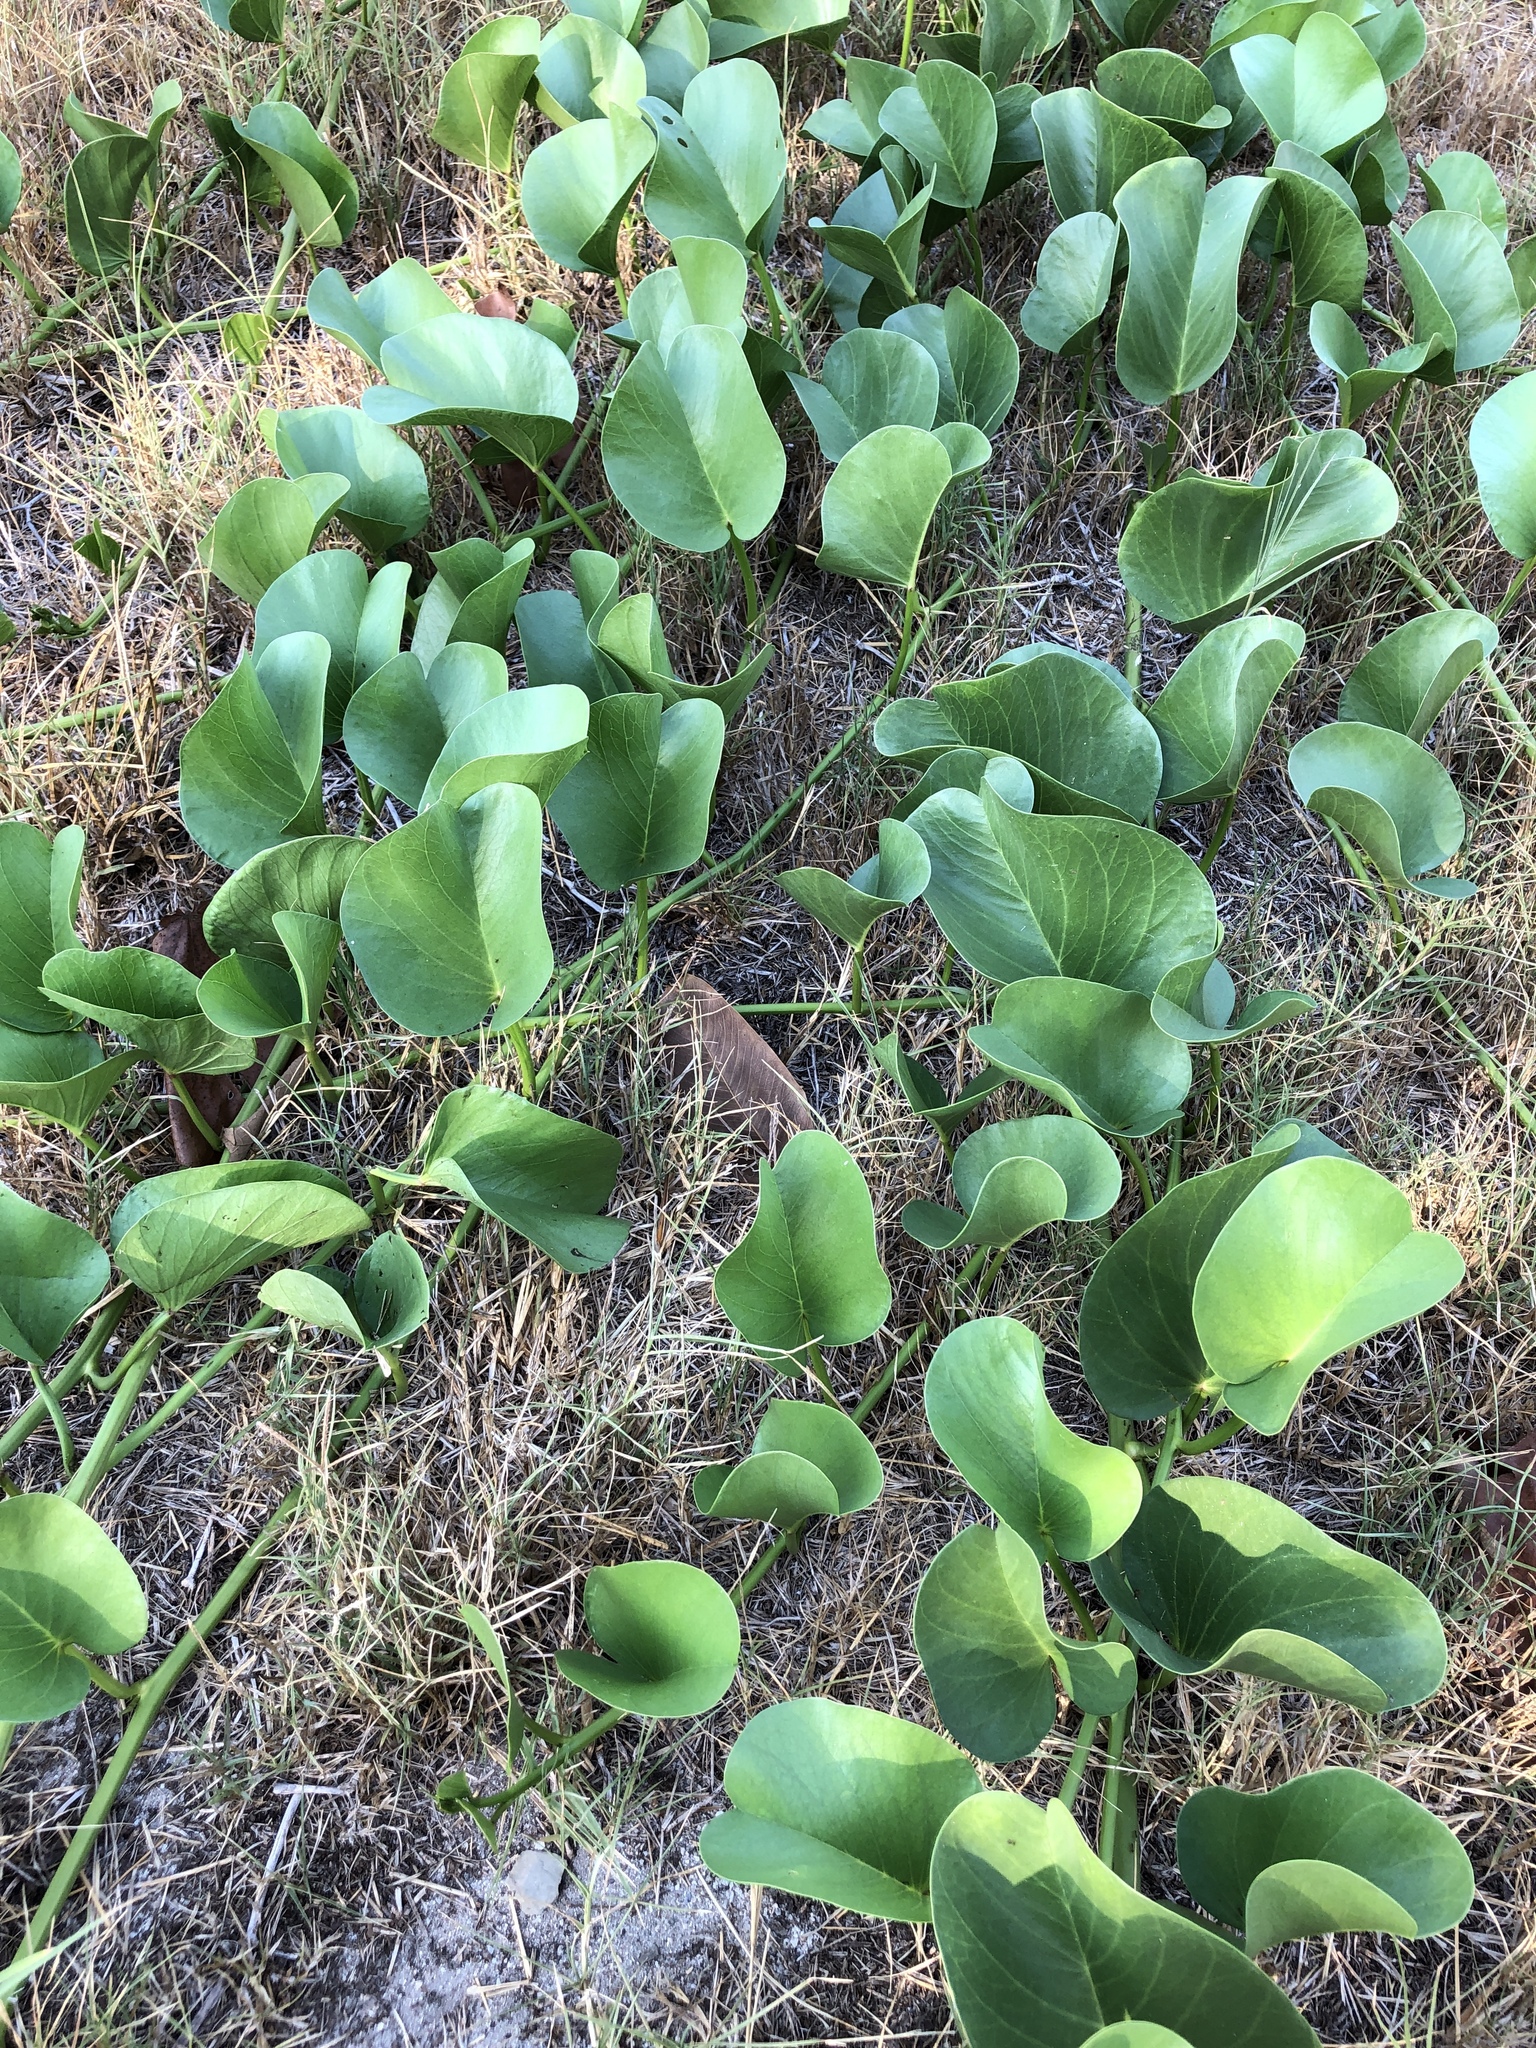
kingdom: Plantae
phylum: Tracheophyta
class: Magnoliopsida
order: Solanales
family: Convolvulaceae
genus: Ipomoea
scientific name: Ipomoea pes-caprae
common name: Beach morning glory
